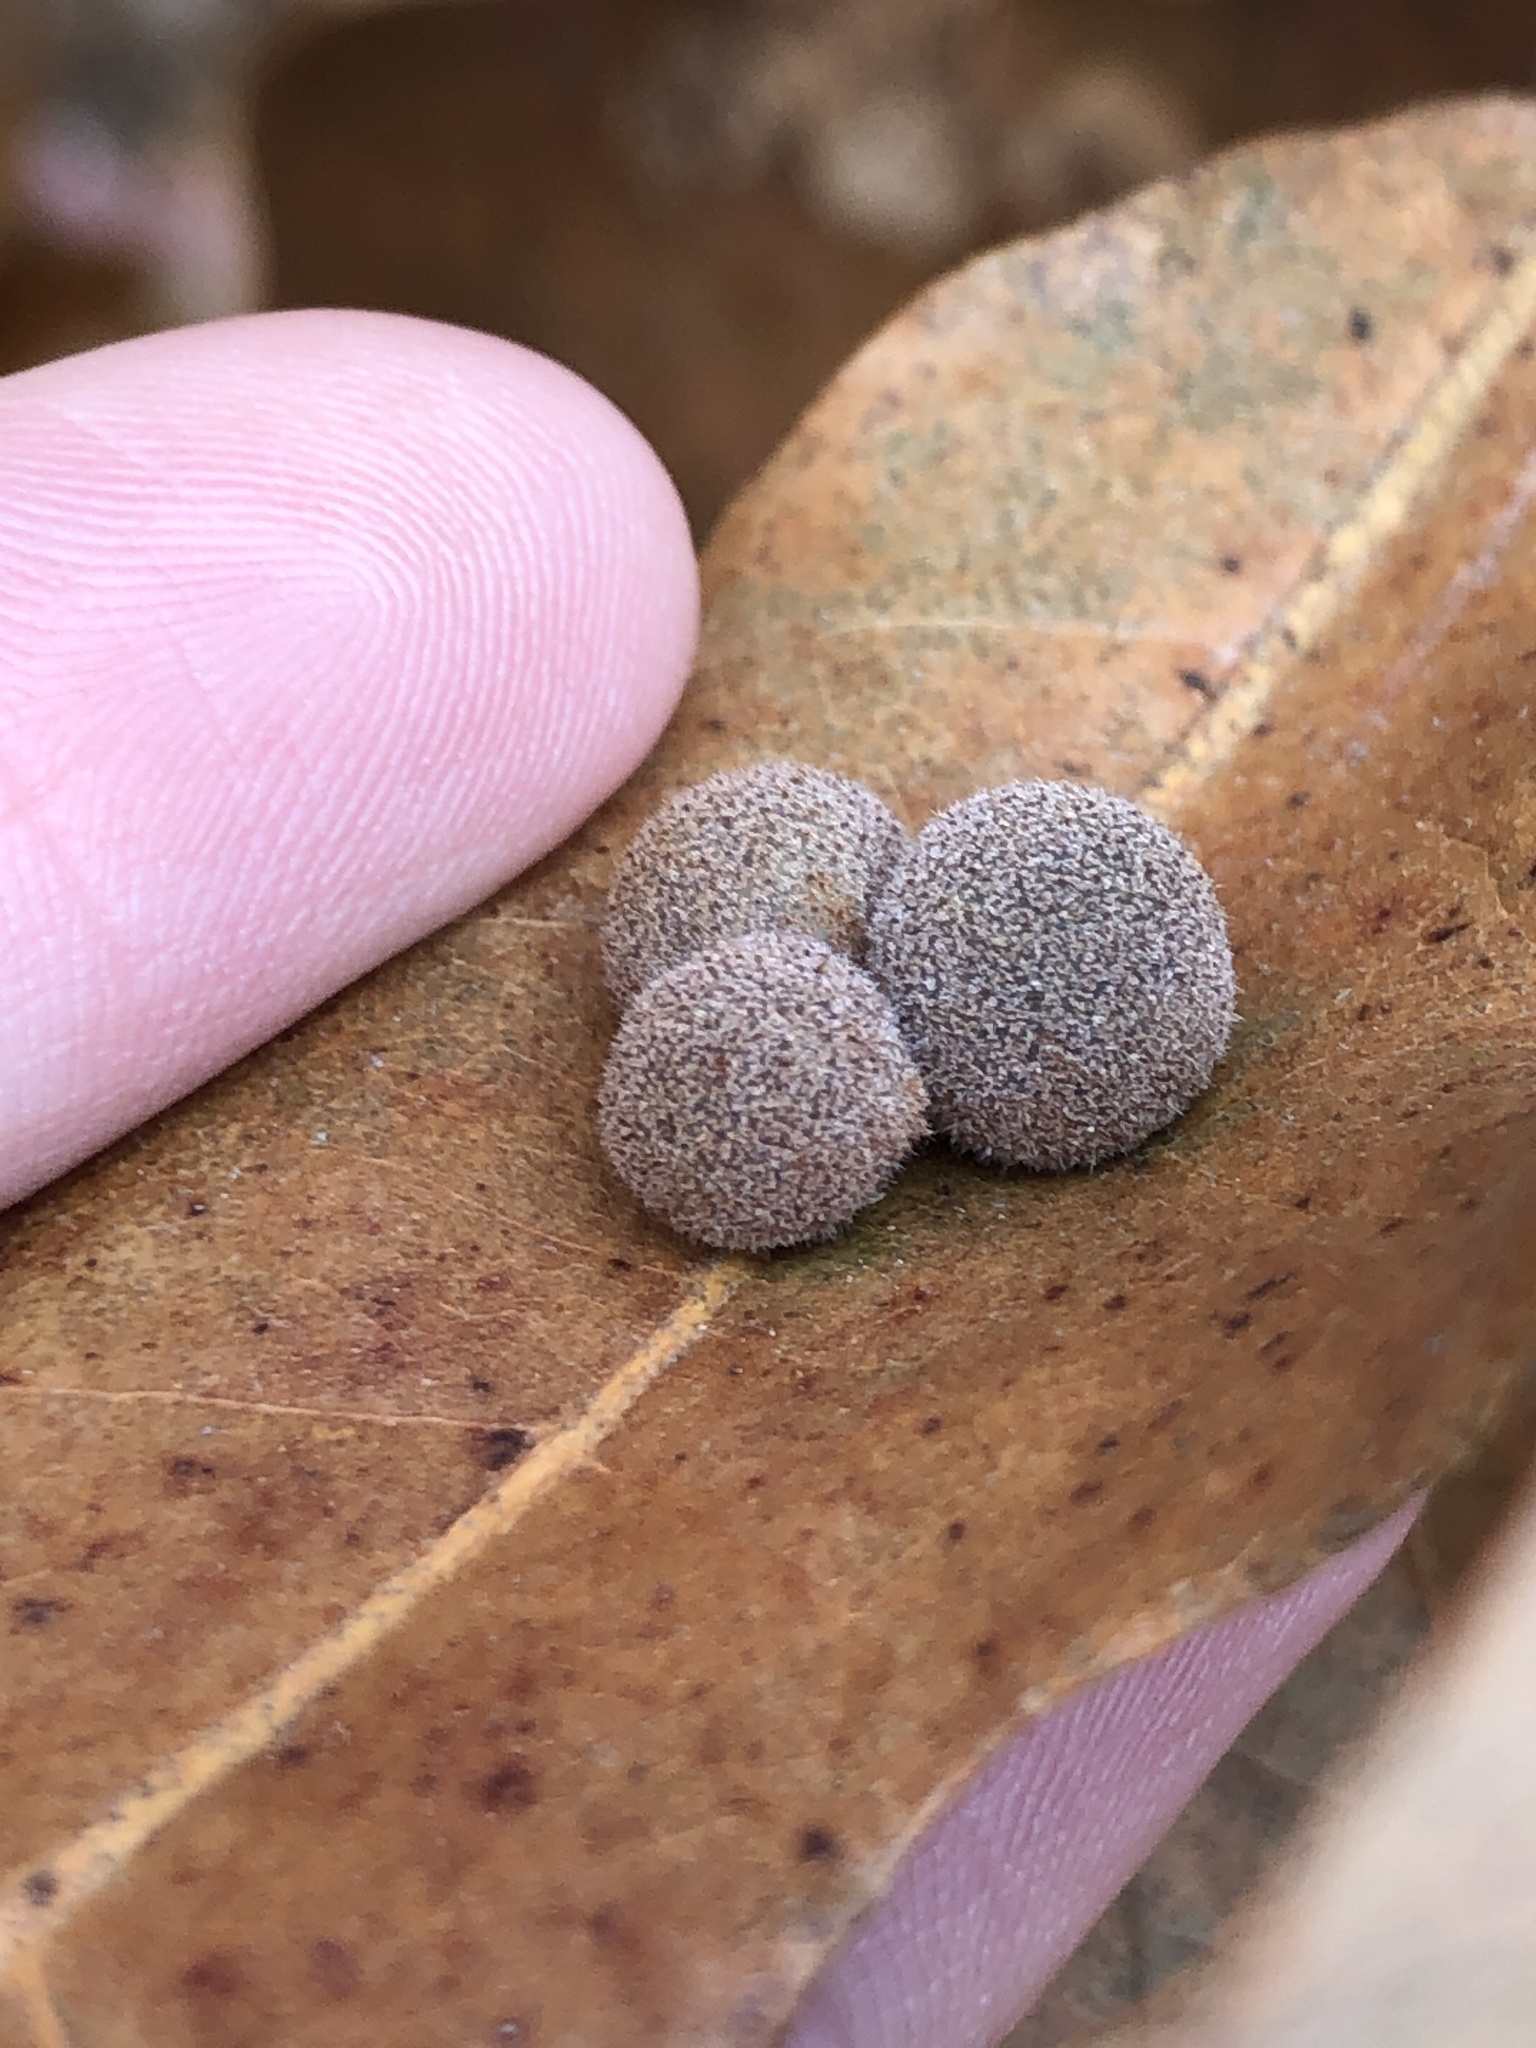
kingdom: Animalia
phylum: Arthropoda
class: Insecta
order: Hymenoptera
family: Cynipidae
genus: Biorhiza
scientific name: Biorhiza Sphaeroteras carolina
